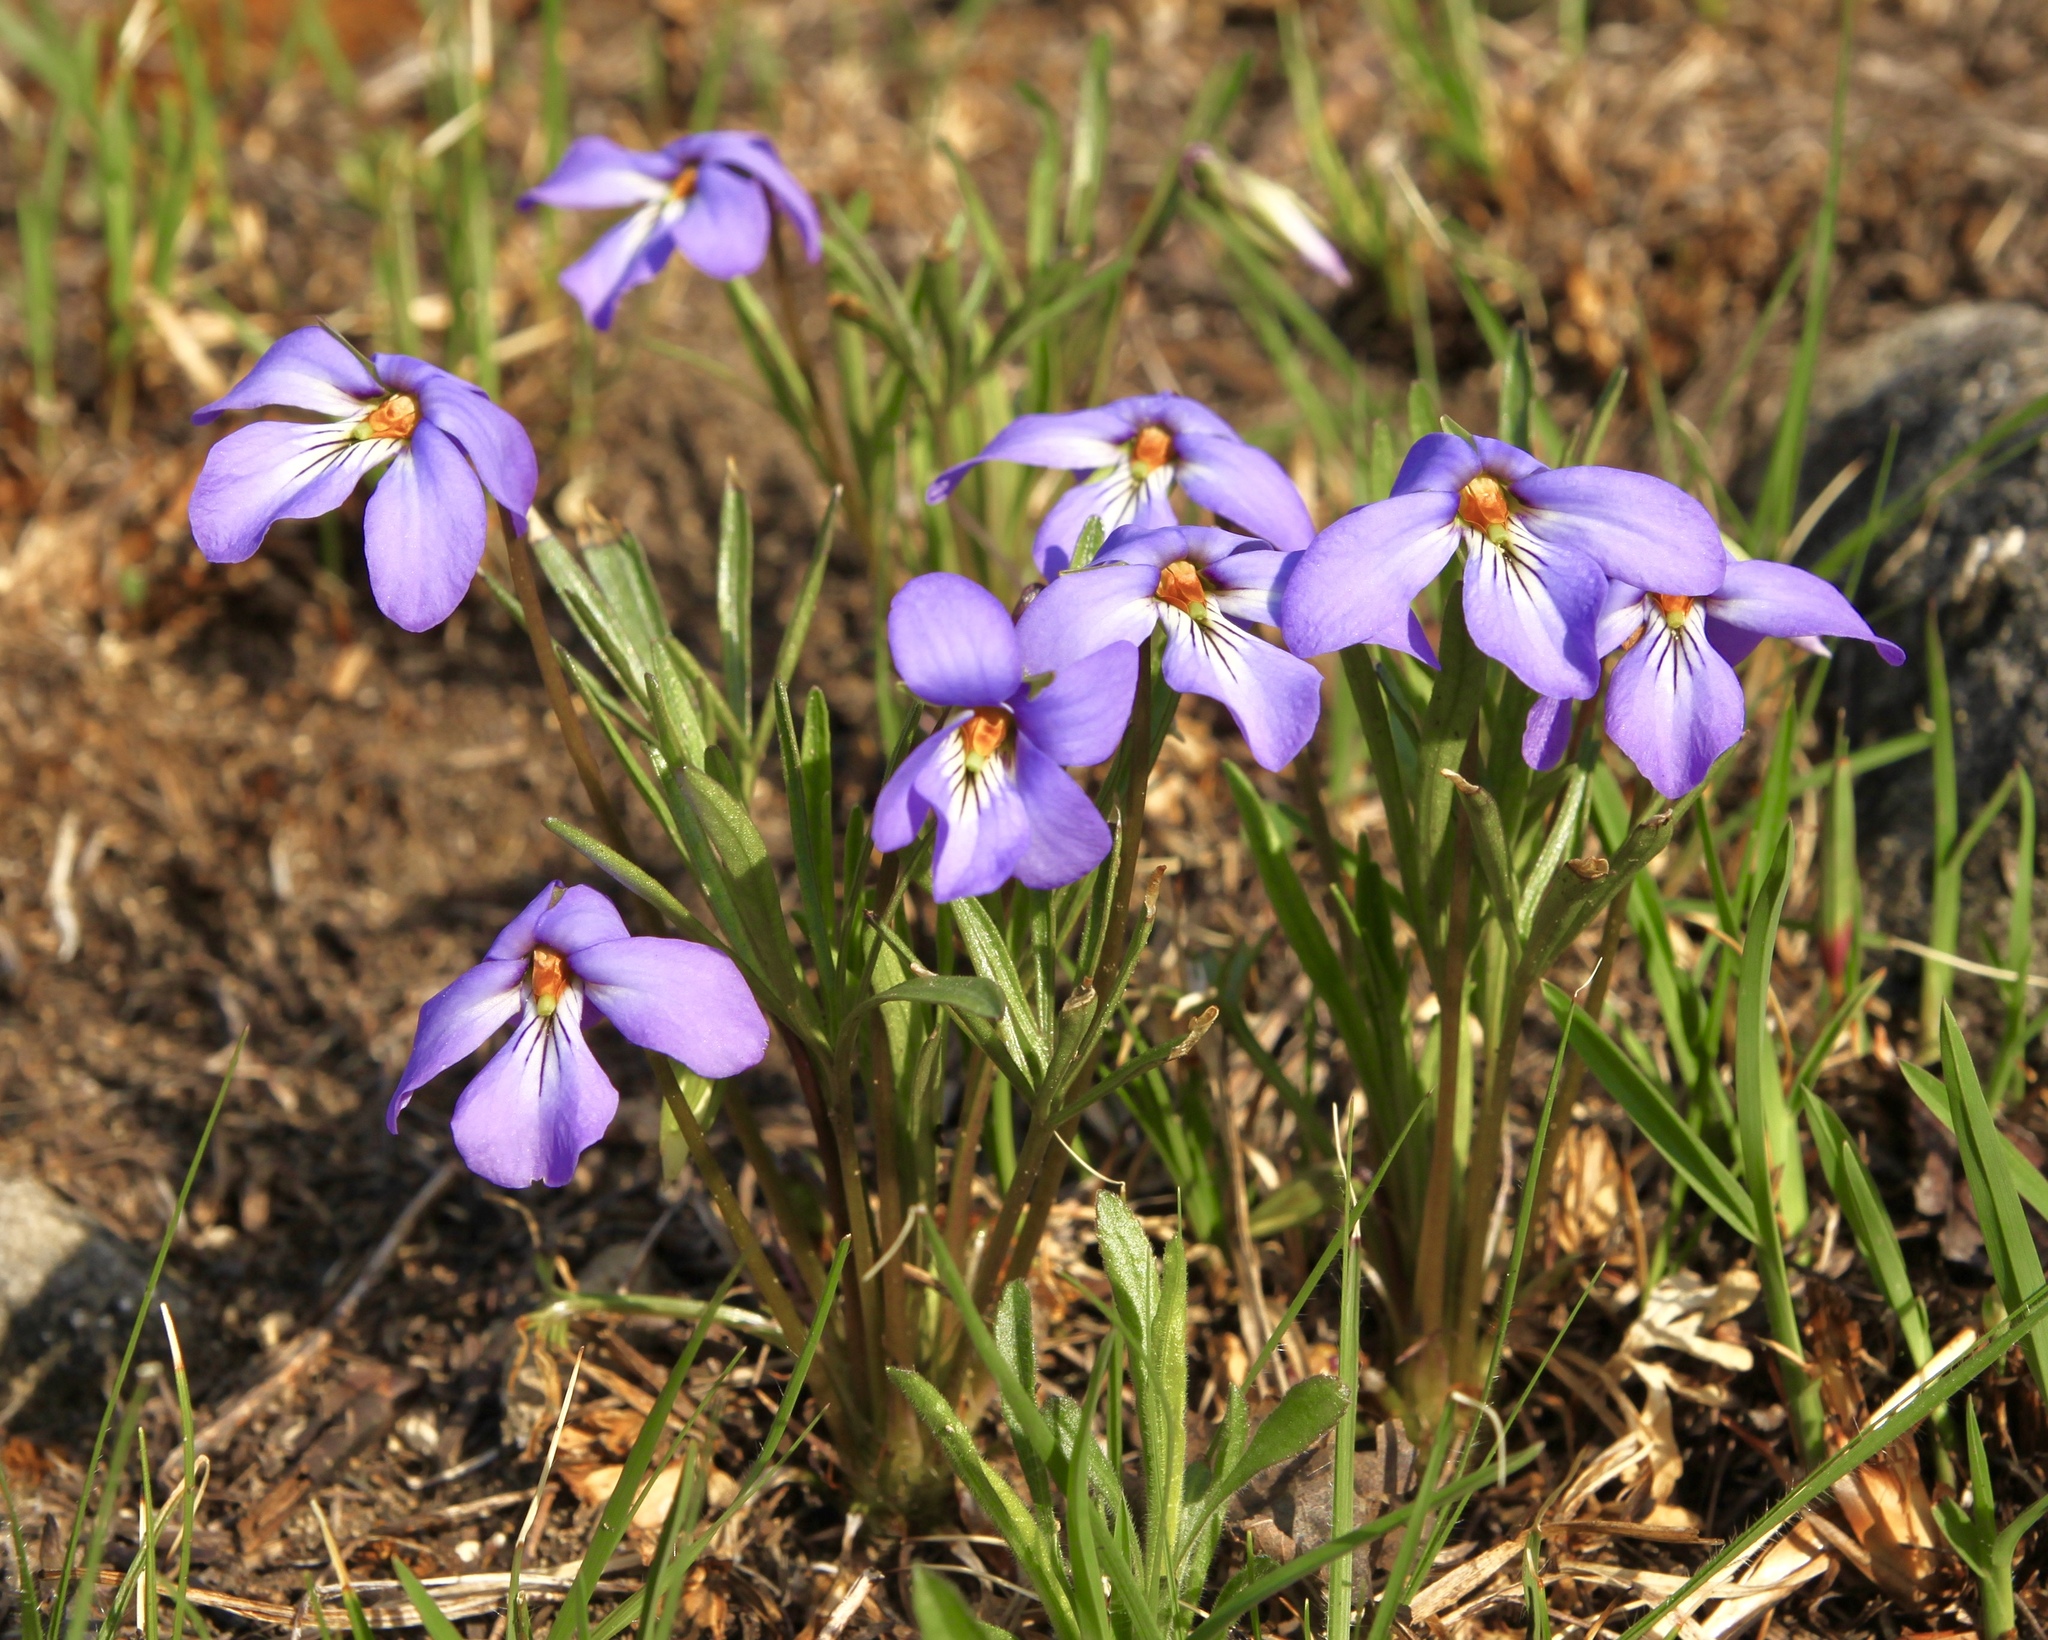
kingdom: Plantae
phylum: Tracheophyta
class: Magnoliopsida
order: Malpighiales
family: Violaceae
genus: Viola
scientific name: Viola pedata
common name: Pansy violet
